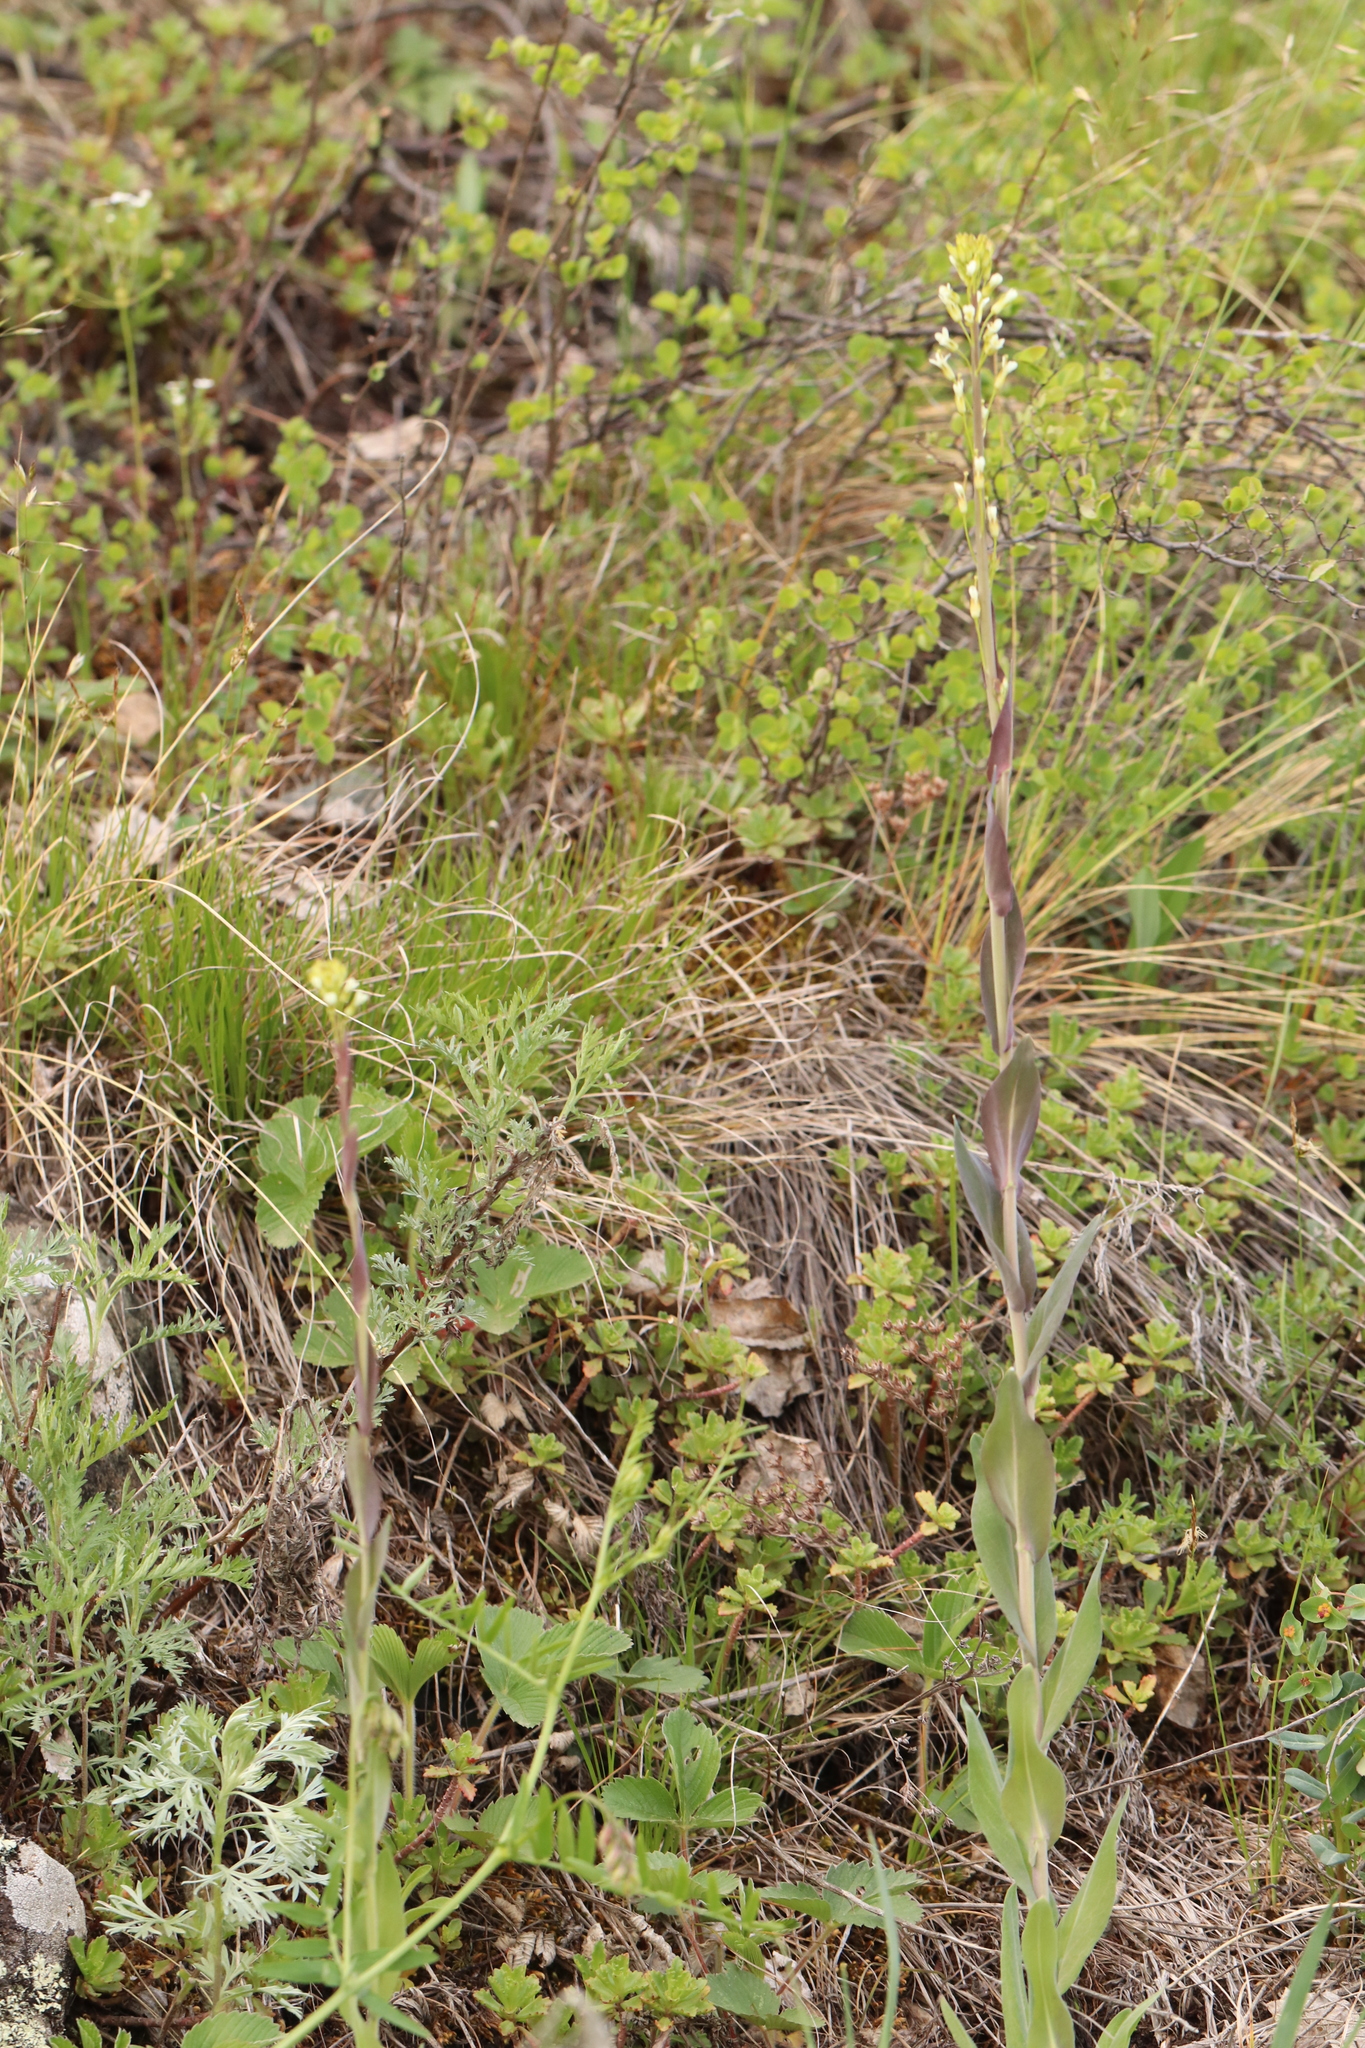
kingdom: Plantae
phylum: Tracheophyta
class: Magnoliopsida
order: Brassicales
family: Brassicaceae
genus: Turritis
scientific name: Turritis glabra
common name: Tower rockcress
